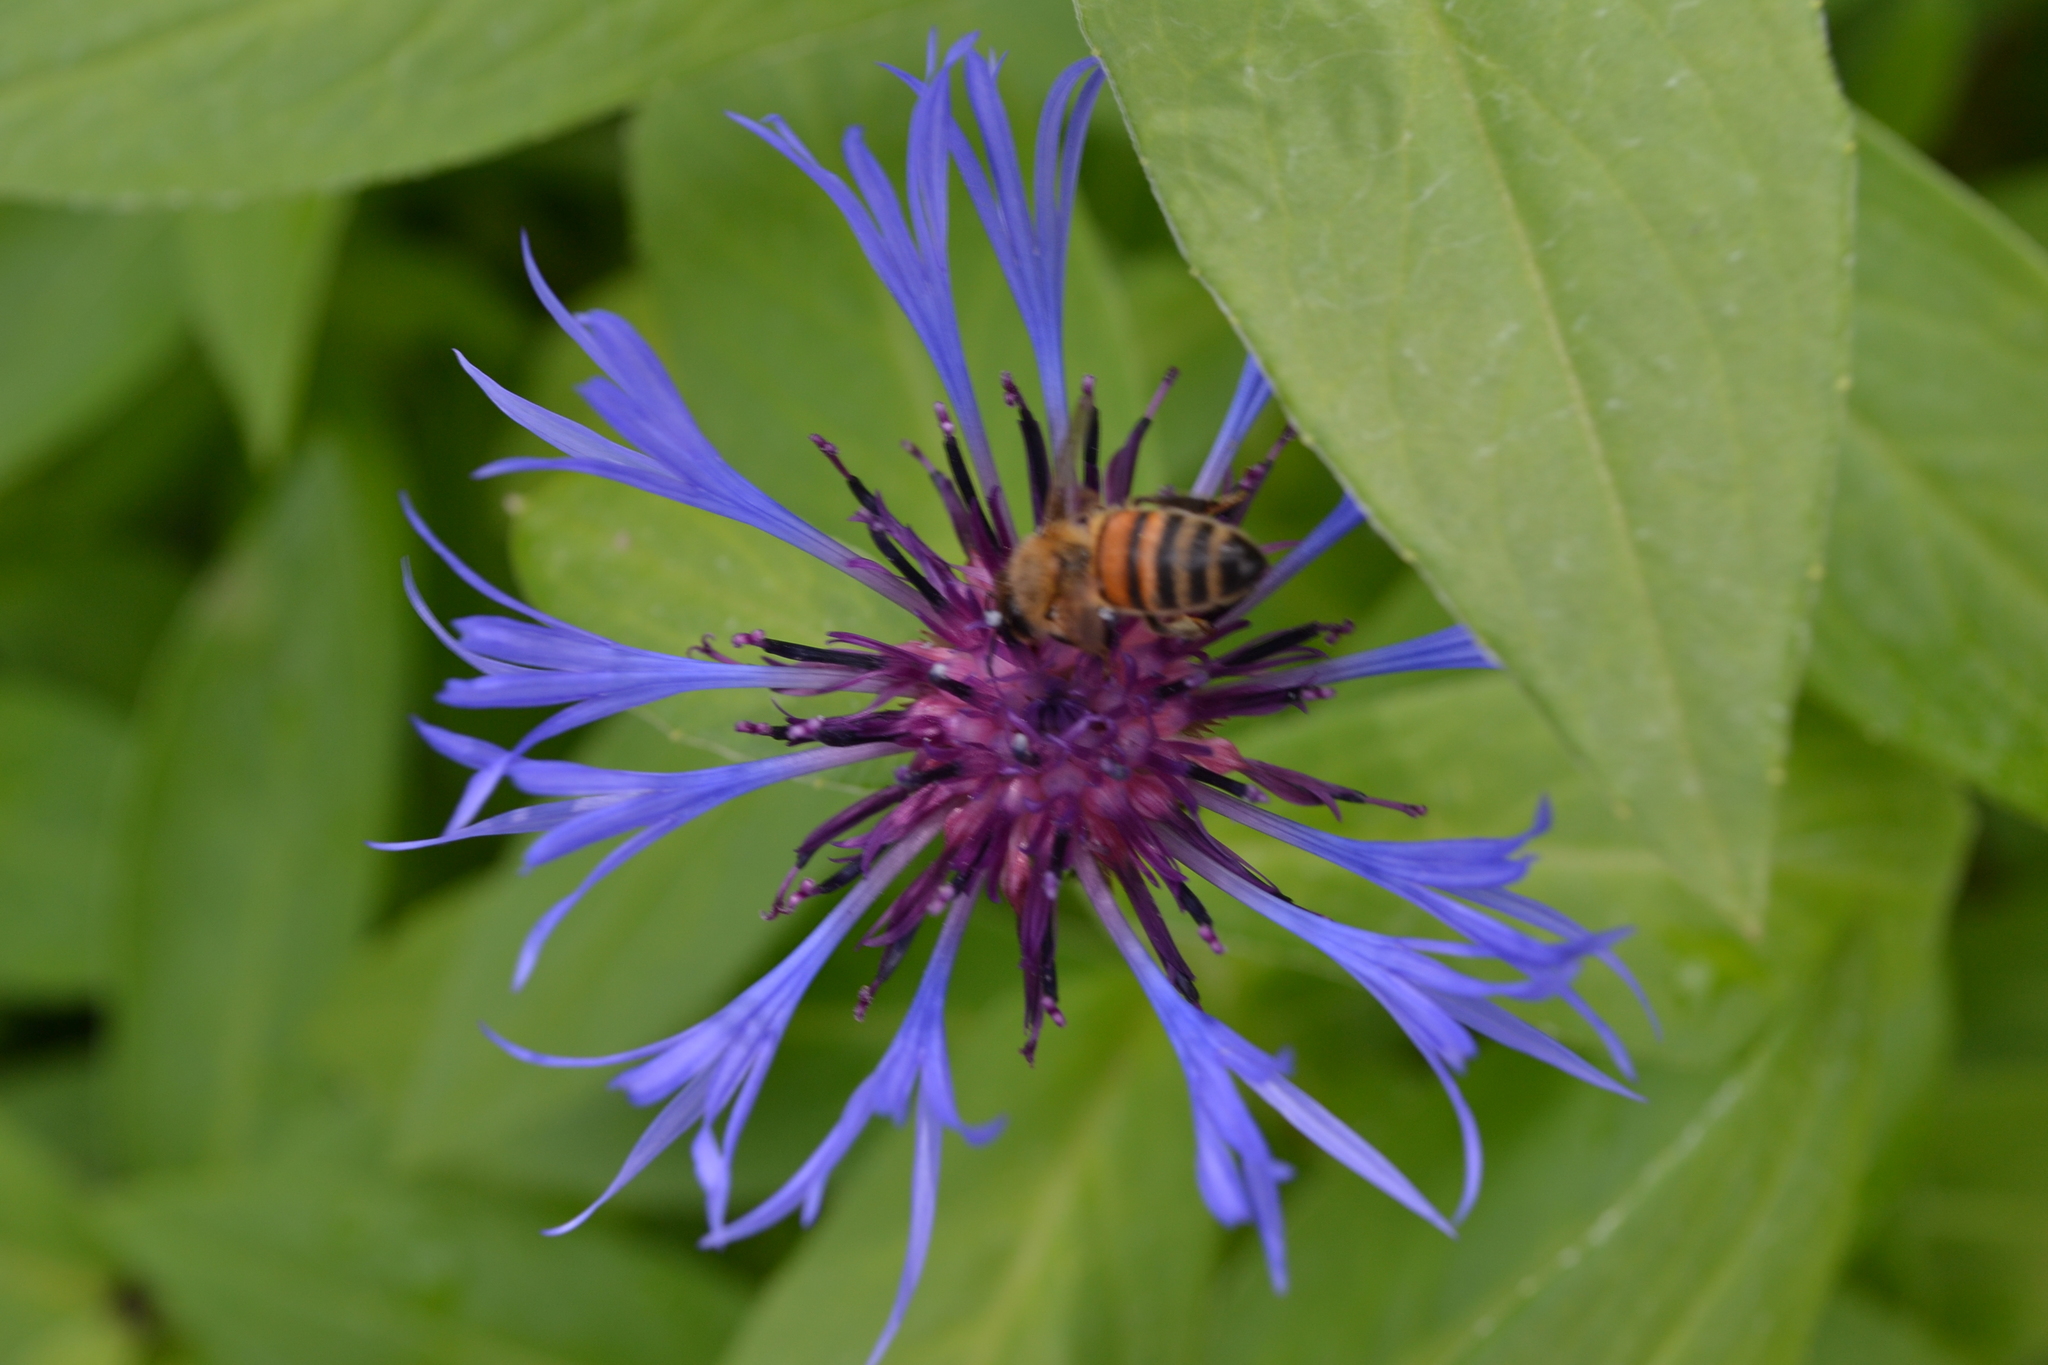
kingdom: Animalia
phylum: Arthropoda
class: Insecta
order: Hymenoptera
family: Apidae
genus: Apis
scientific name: Apis mellifera
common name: Honey bee
